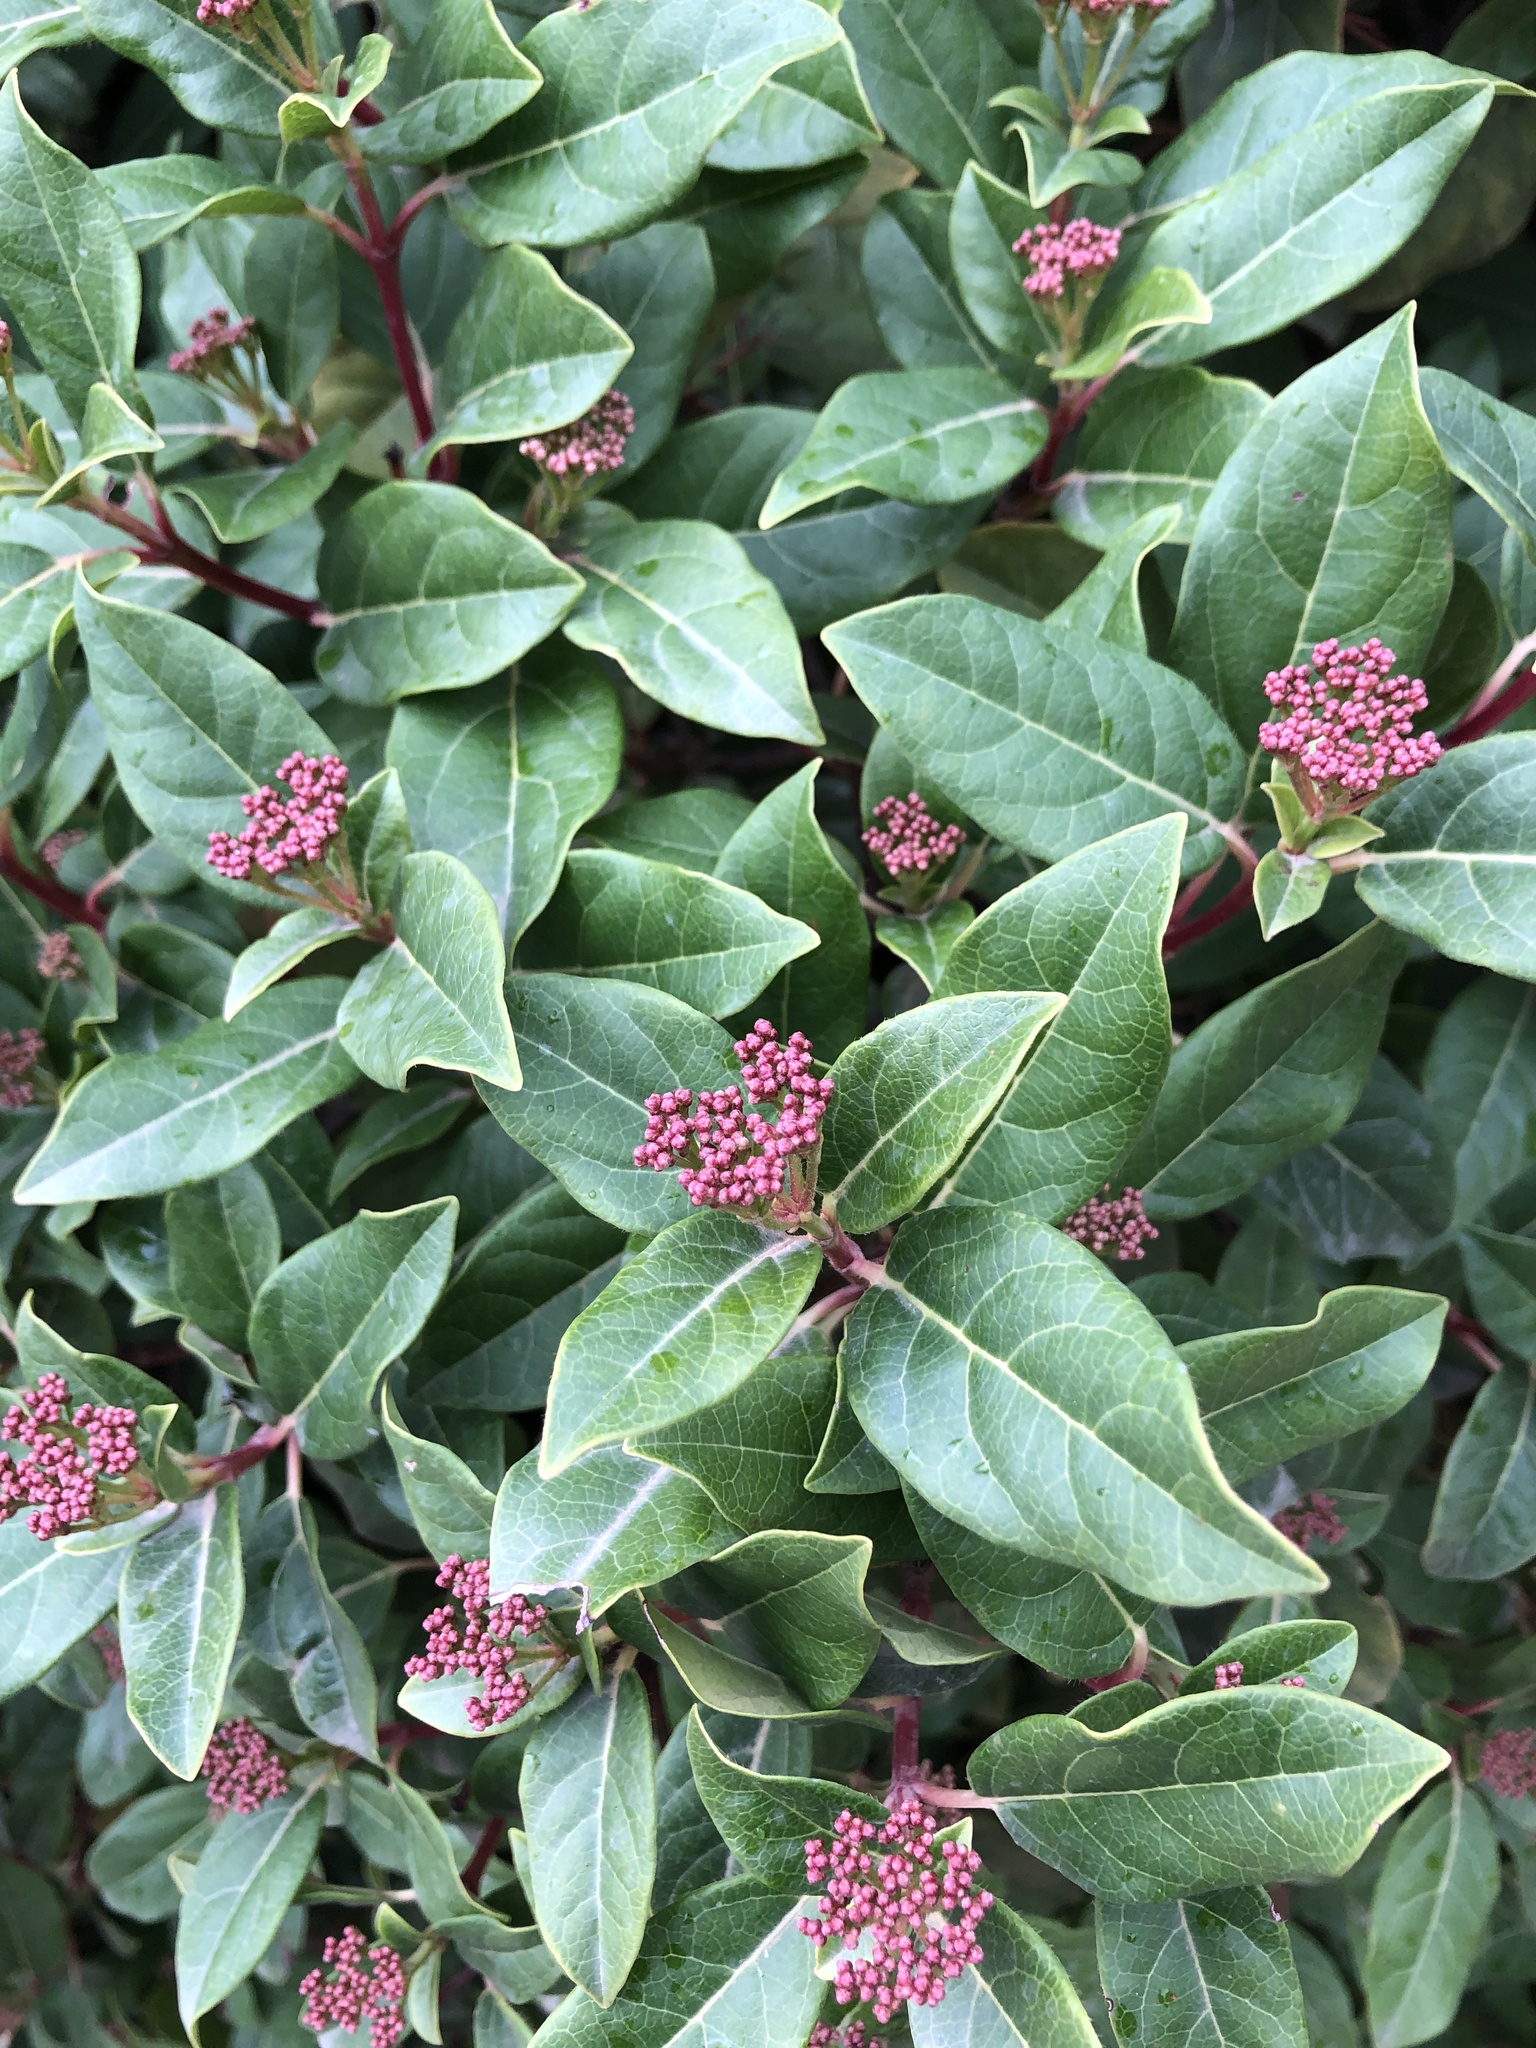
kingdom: Plantae
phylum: Tracheophyta
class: Magnoliopsida
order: Dipsacales
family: Viburnaceae
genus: Viburnum
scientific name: Viburnum tinus
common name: Laurustinus
